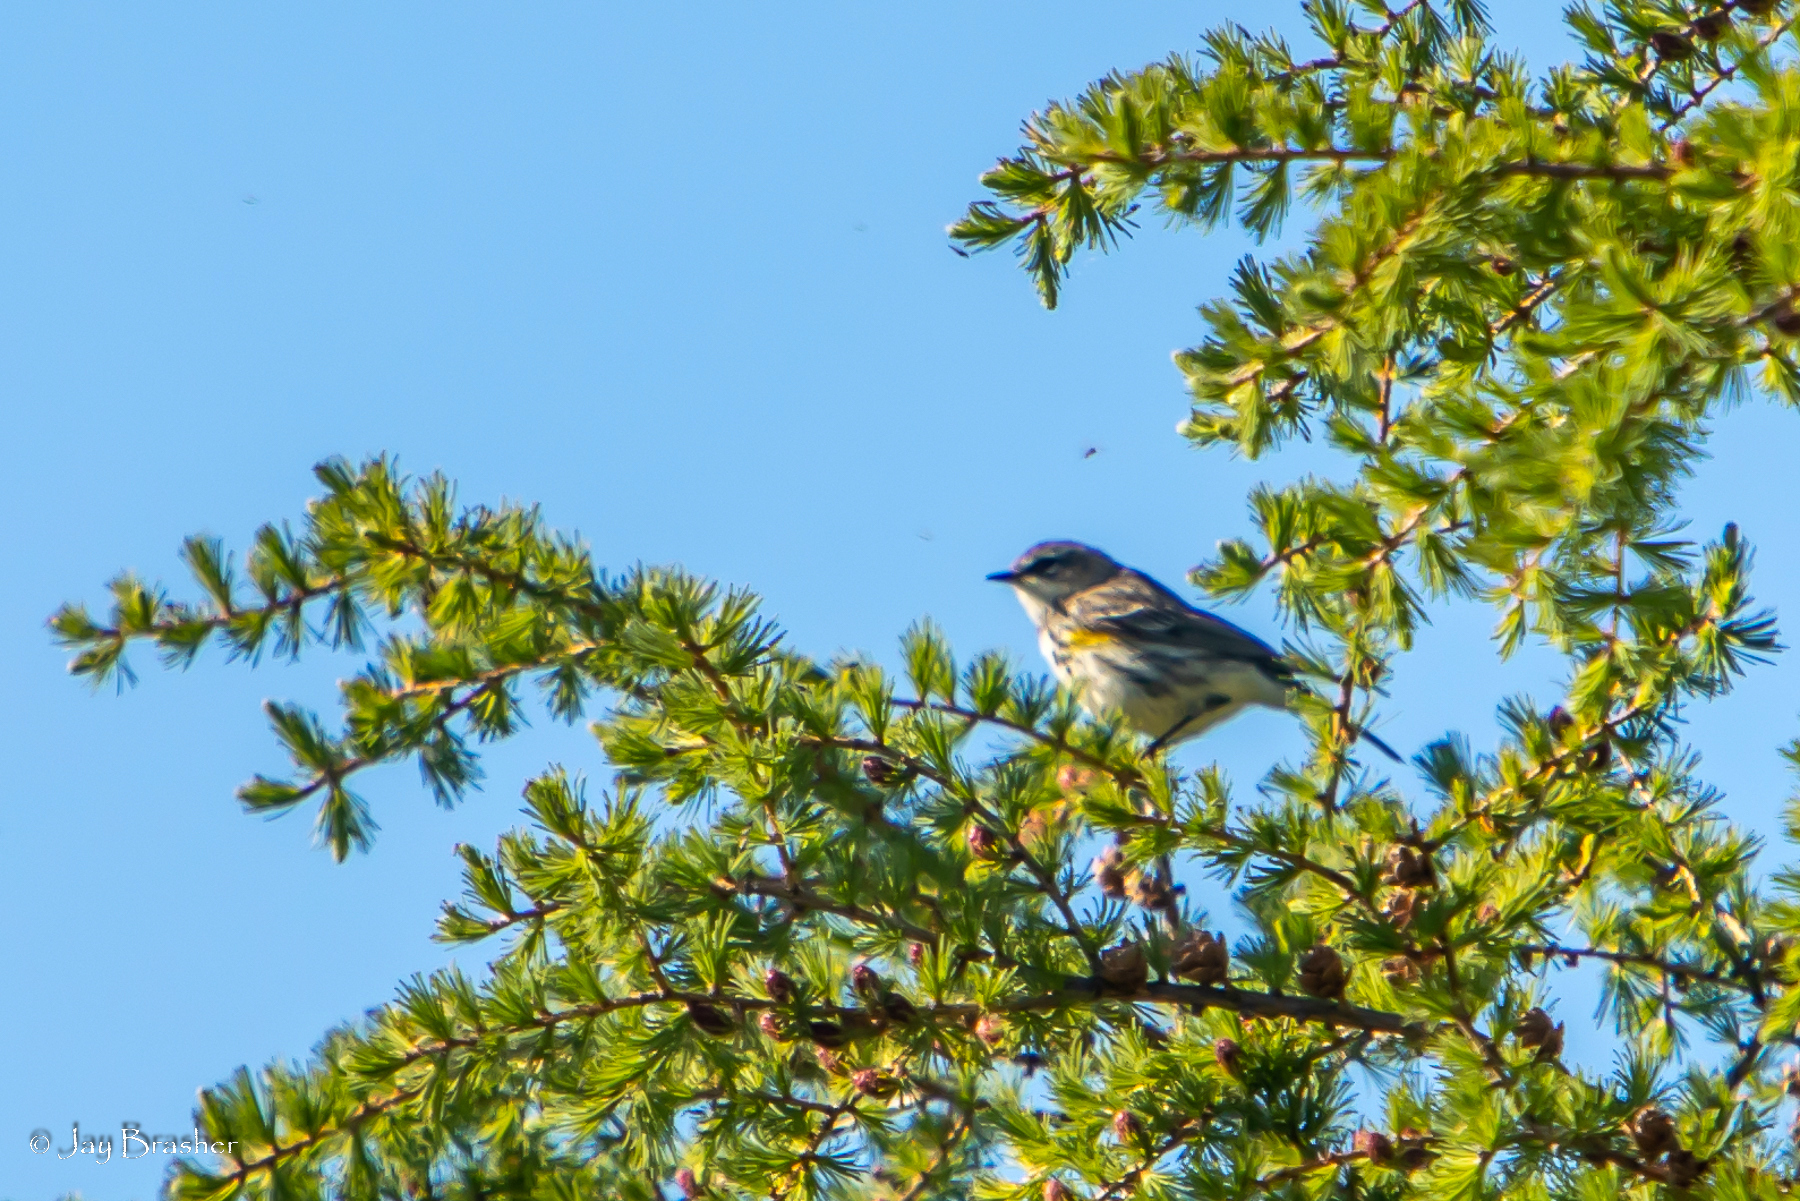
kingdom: Animalia
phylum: Chordata
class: Aves
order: Passeriformes
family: Parulidae
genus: Setophaga
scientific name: Setophaga coronata
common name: Myrtle warbler
